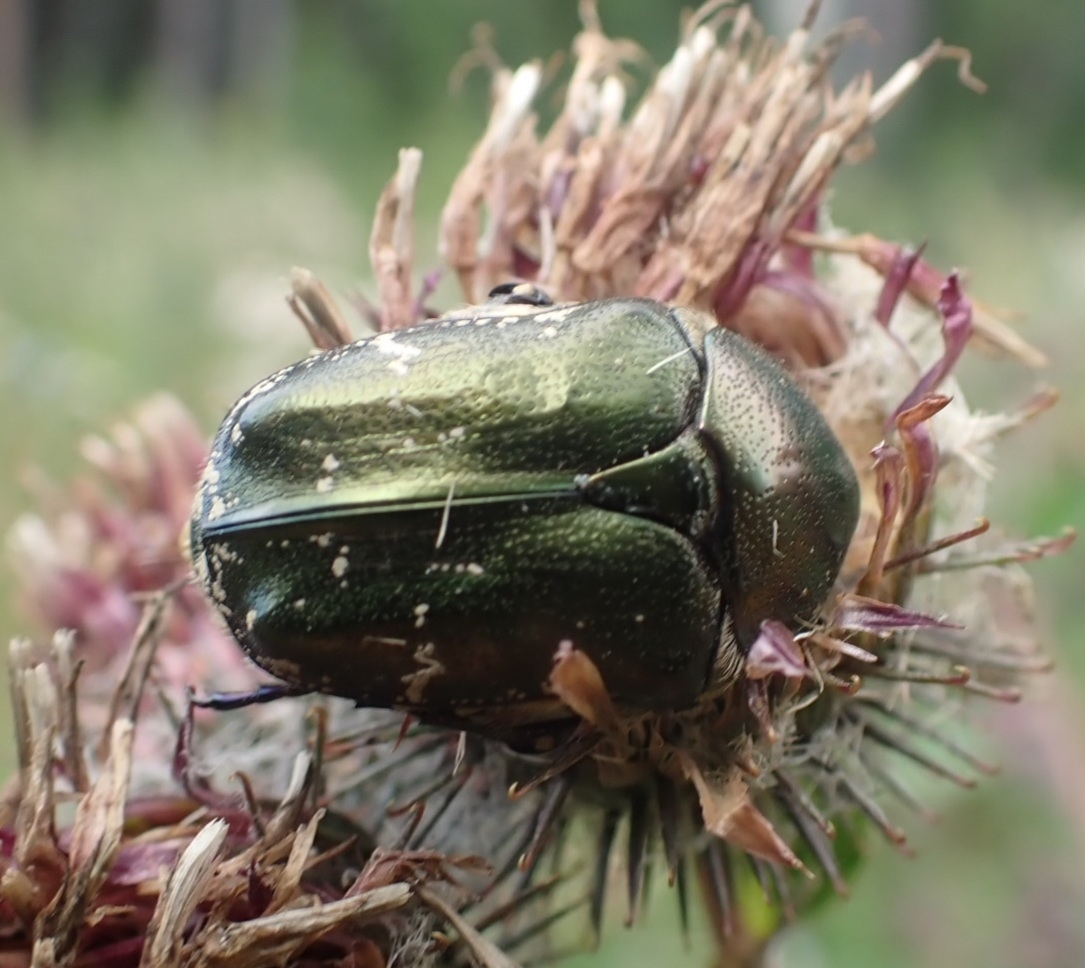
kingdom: Animalia
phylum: Arthropoda
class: Insecta
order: Coleoptera
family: Scarabaeidae
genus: Protaetia
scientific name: Protaetia cuprea
